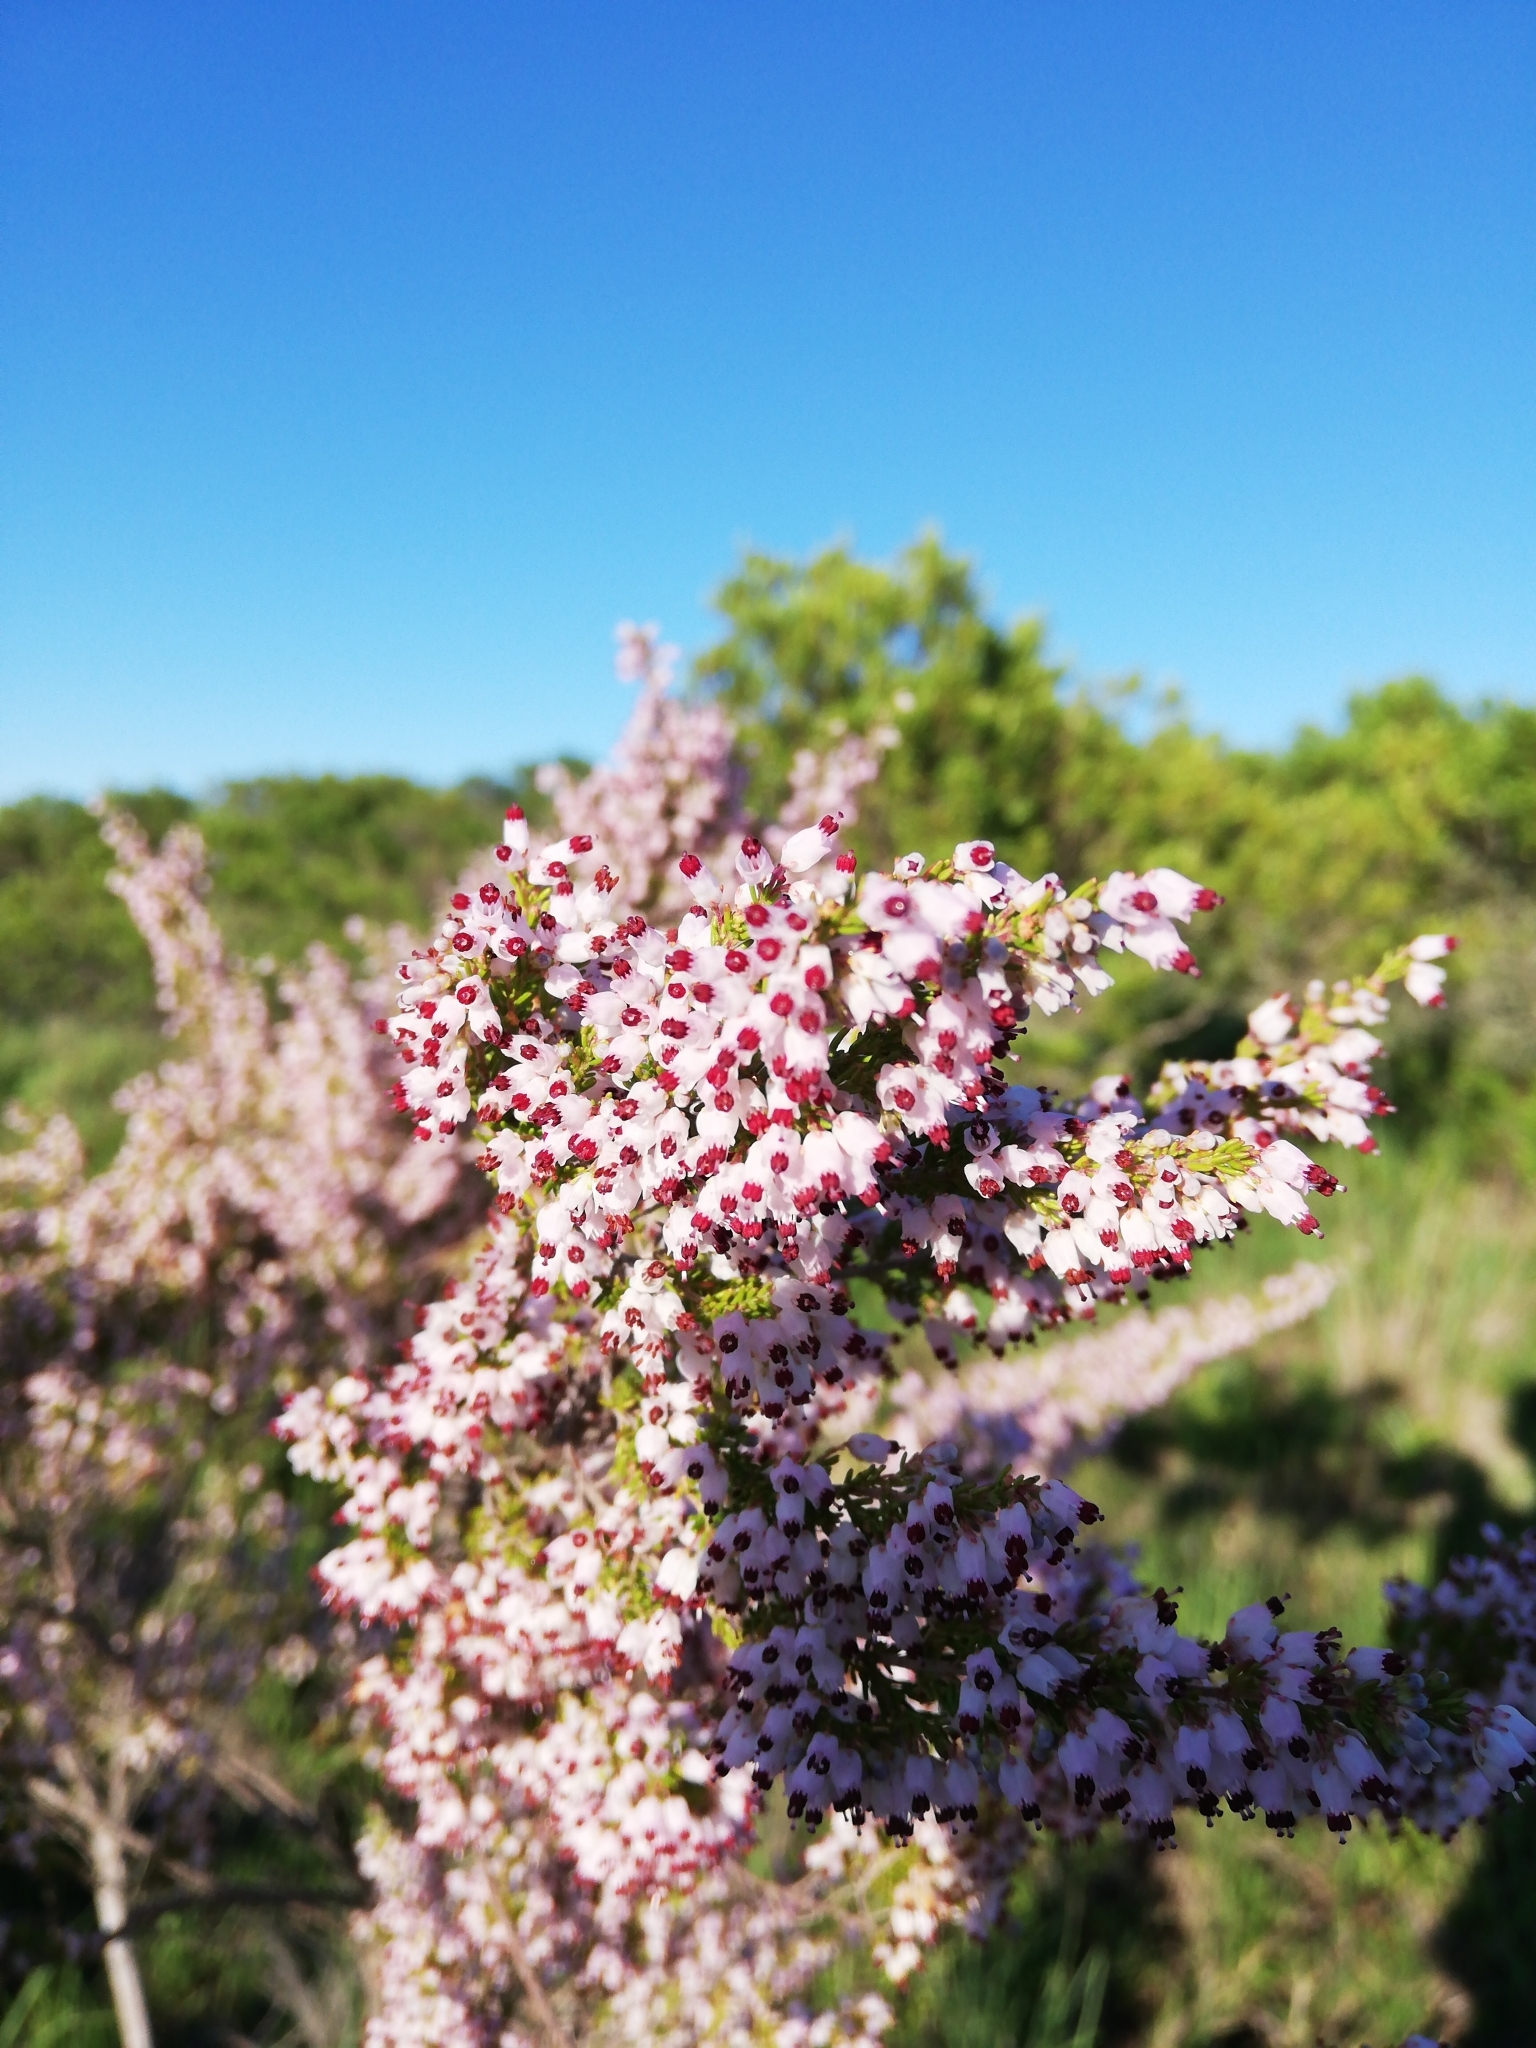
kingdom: Plantae
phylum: Tracheophyta
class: Magnoliopsida
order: Ericales
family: Ericaceae
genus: Erica
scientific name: Erica trivialis
